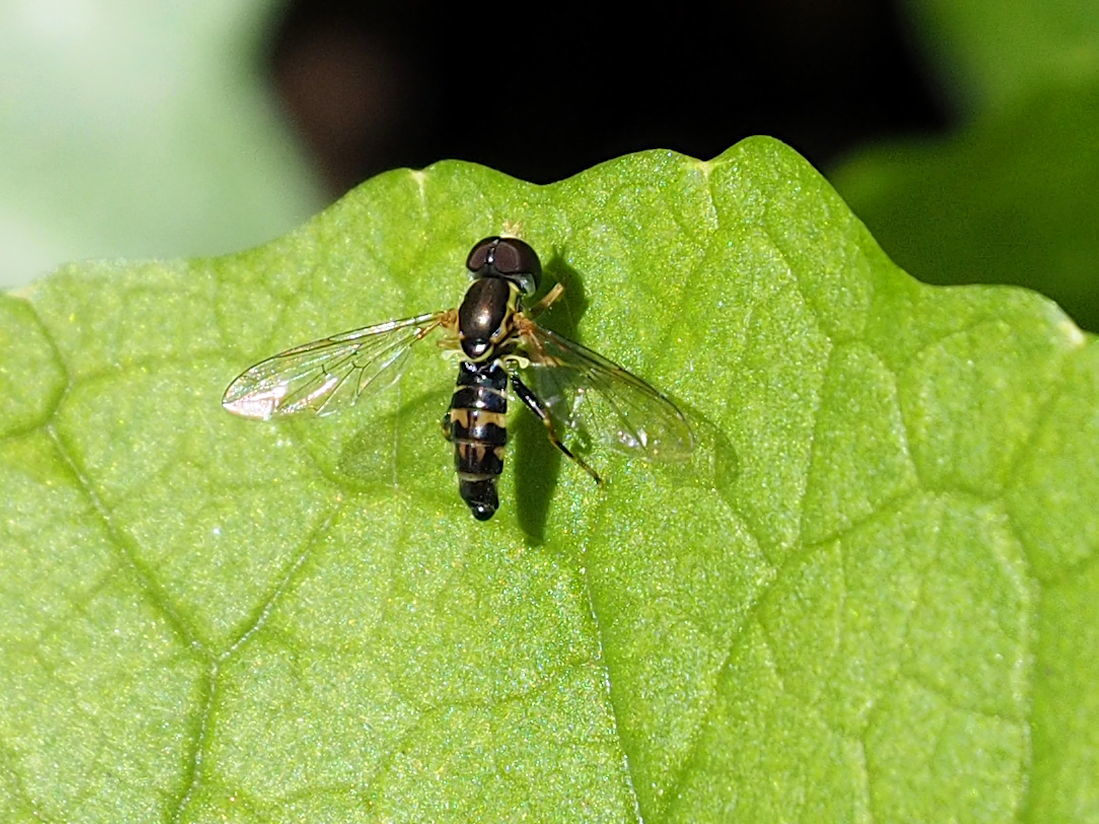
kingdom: Animalia
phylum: Arthropoda
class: Insecta
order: Diptera
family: Syrphidae
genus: Toxomerus
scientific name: Toxomerus geminatus
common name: Eastern calligrapher
